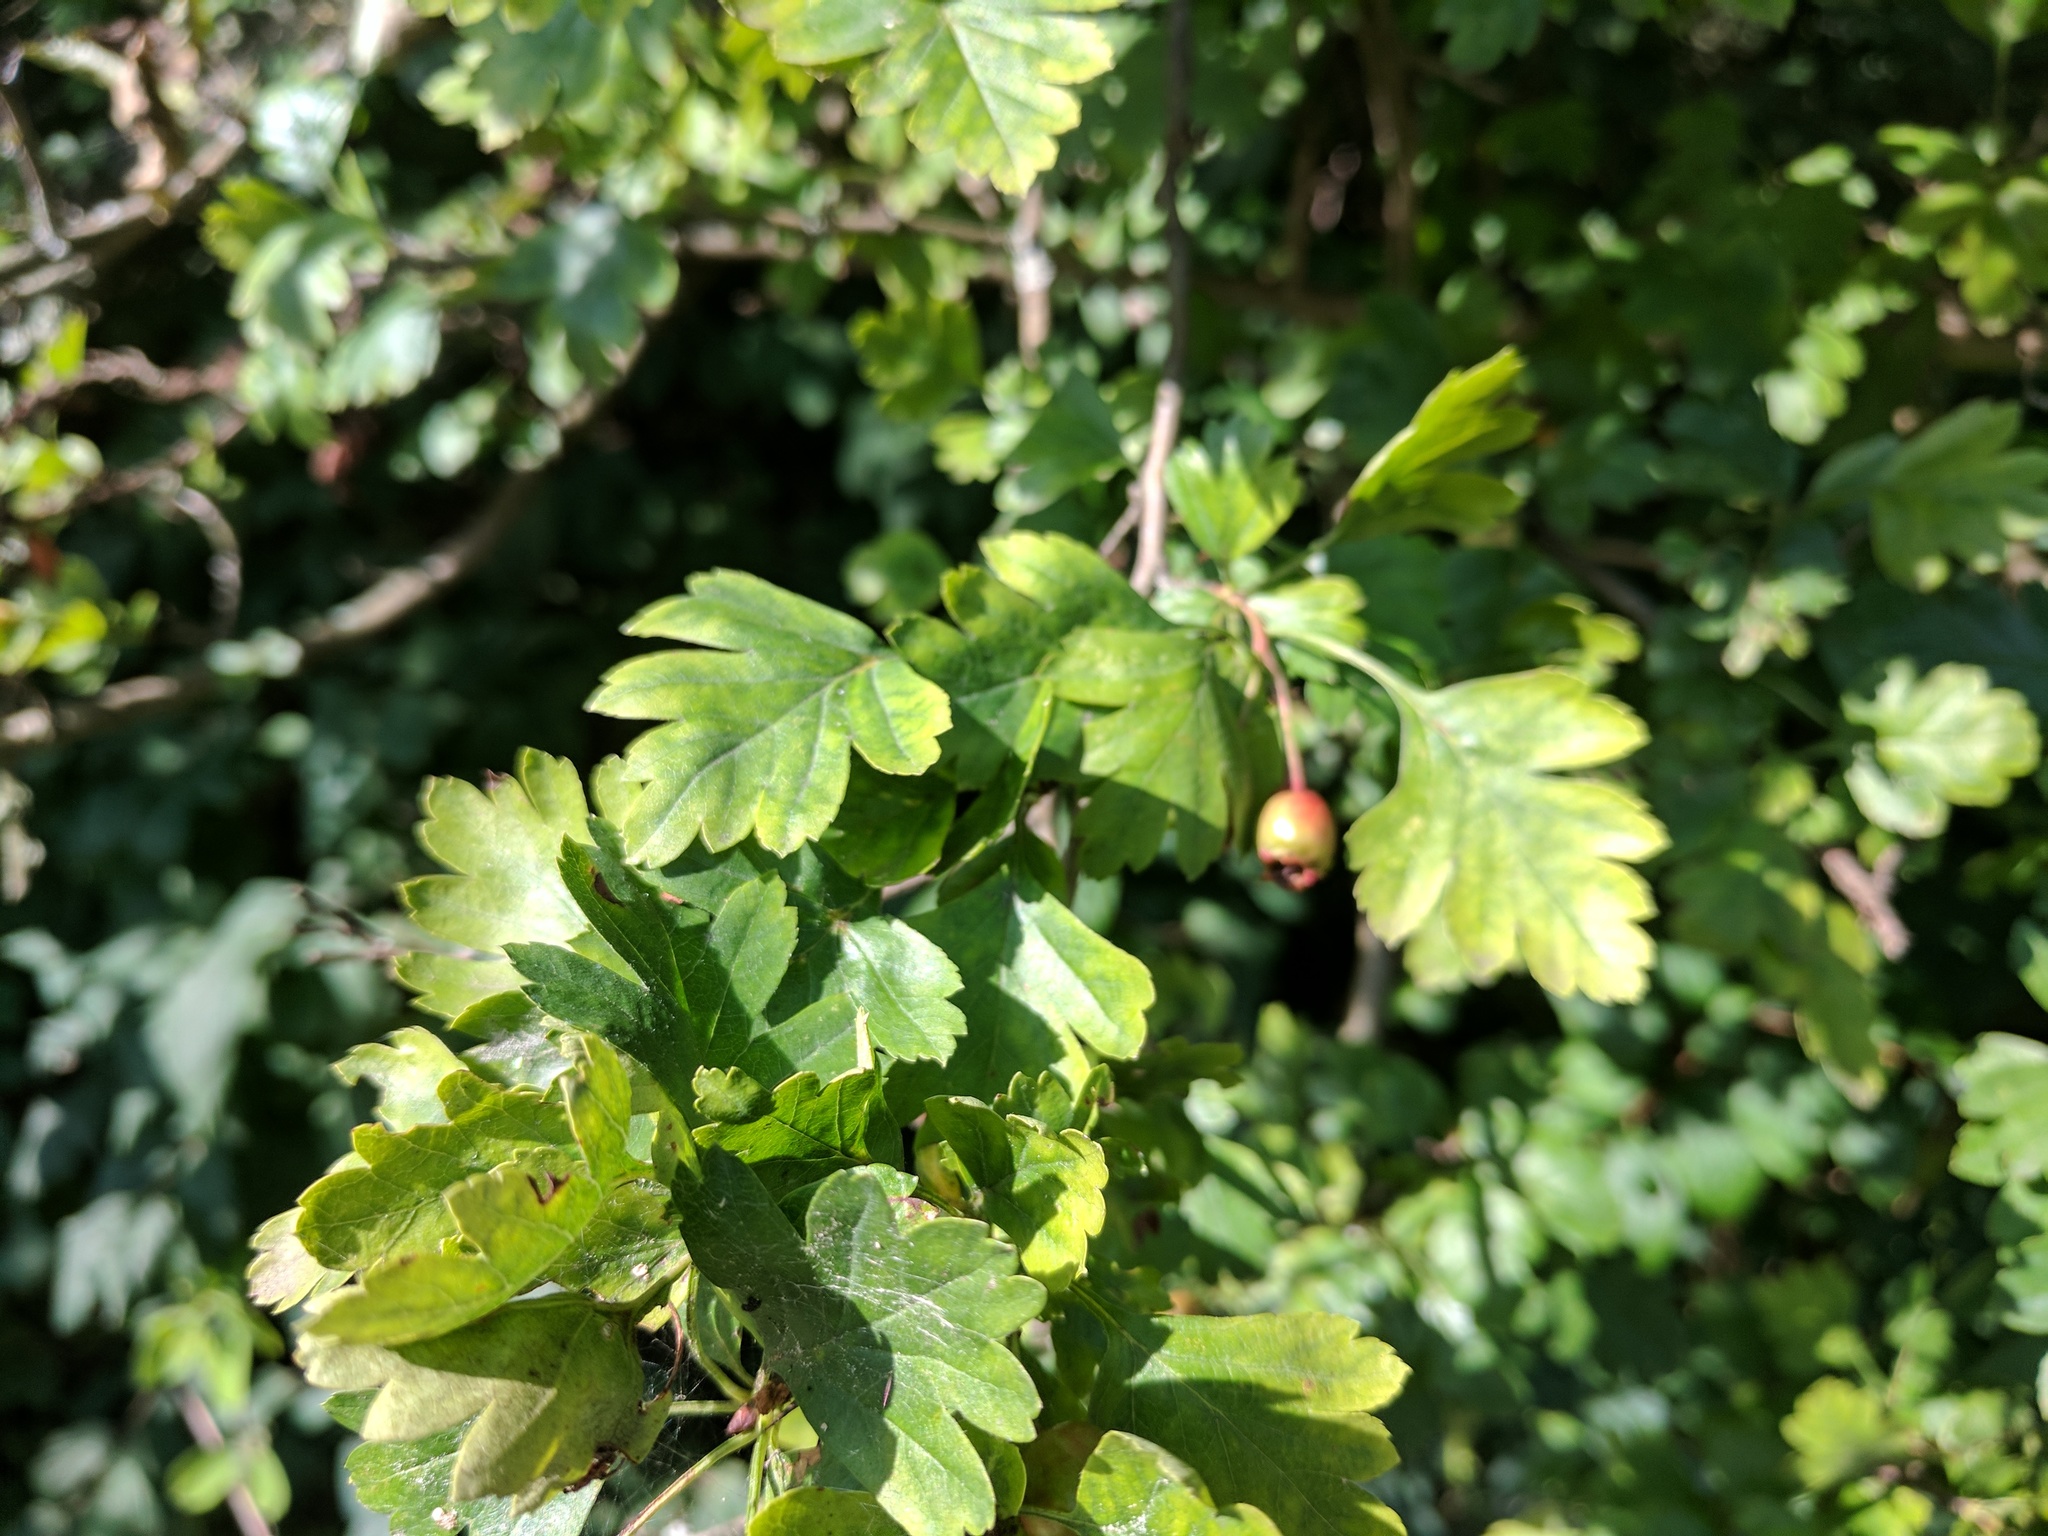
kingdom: Plantae
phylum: Tracheophyta
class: Magnoliopsida
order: Rosales
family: Rosaceae
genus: Crataegus
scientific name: Crataegus monogyna
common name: Hawthorn
